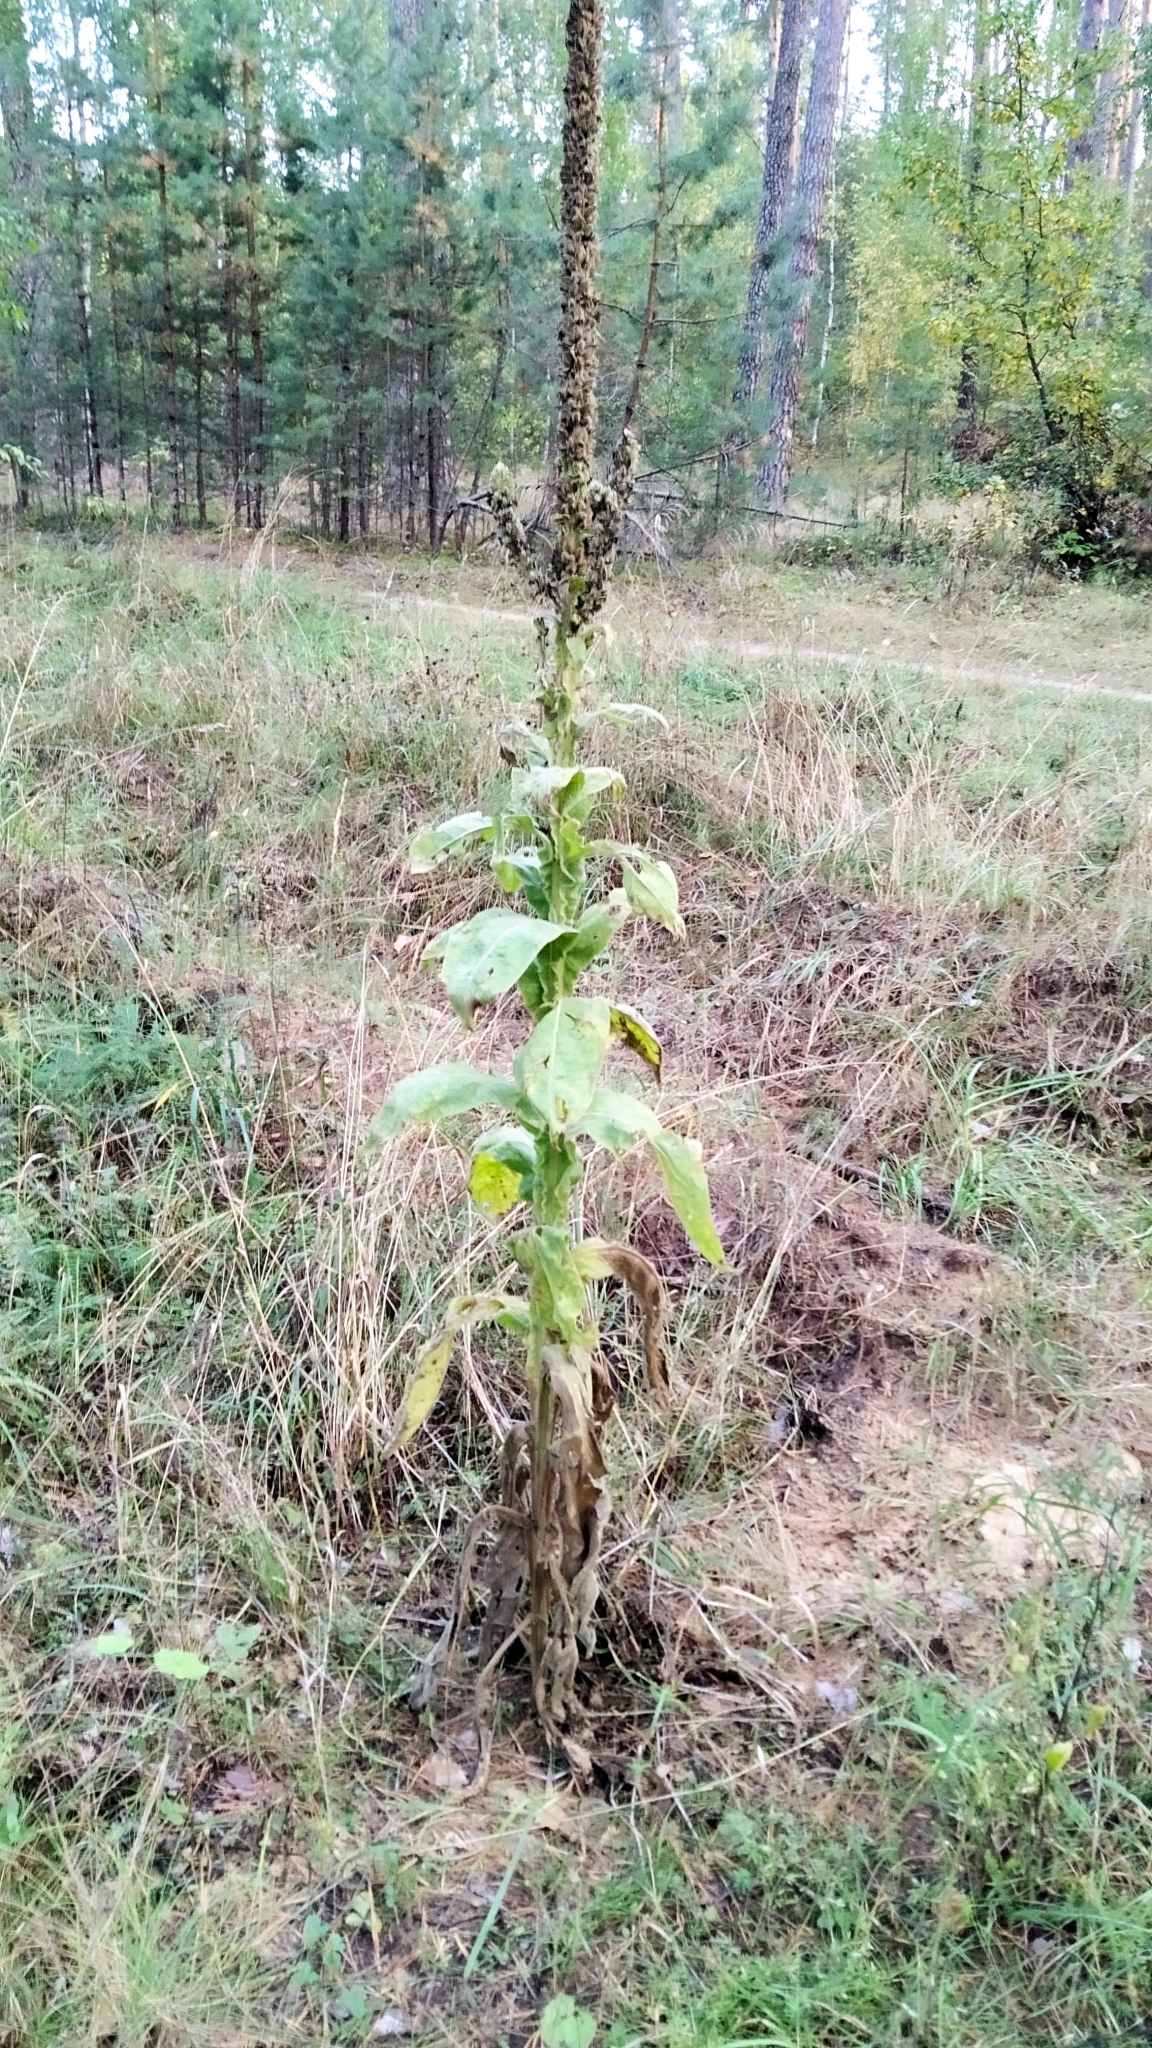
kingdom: Plantae
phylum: Tracheophyta
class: Magnoliopsida
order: Lamiales
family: Scrophulariaceae
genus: Verbascum
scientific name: Verbascum thapsus
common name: Common mullein
